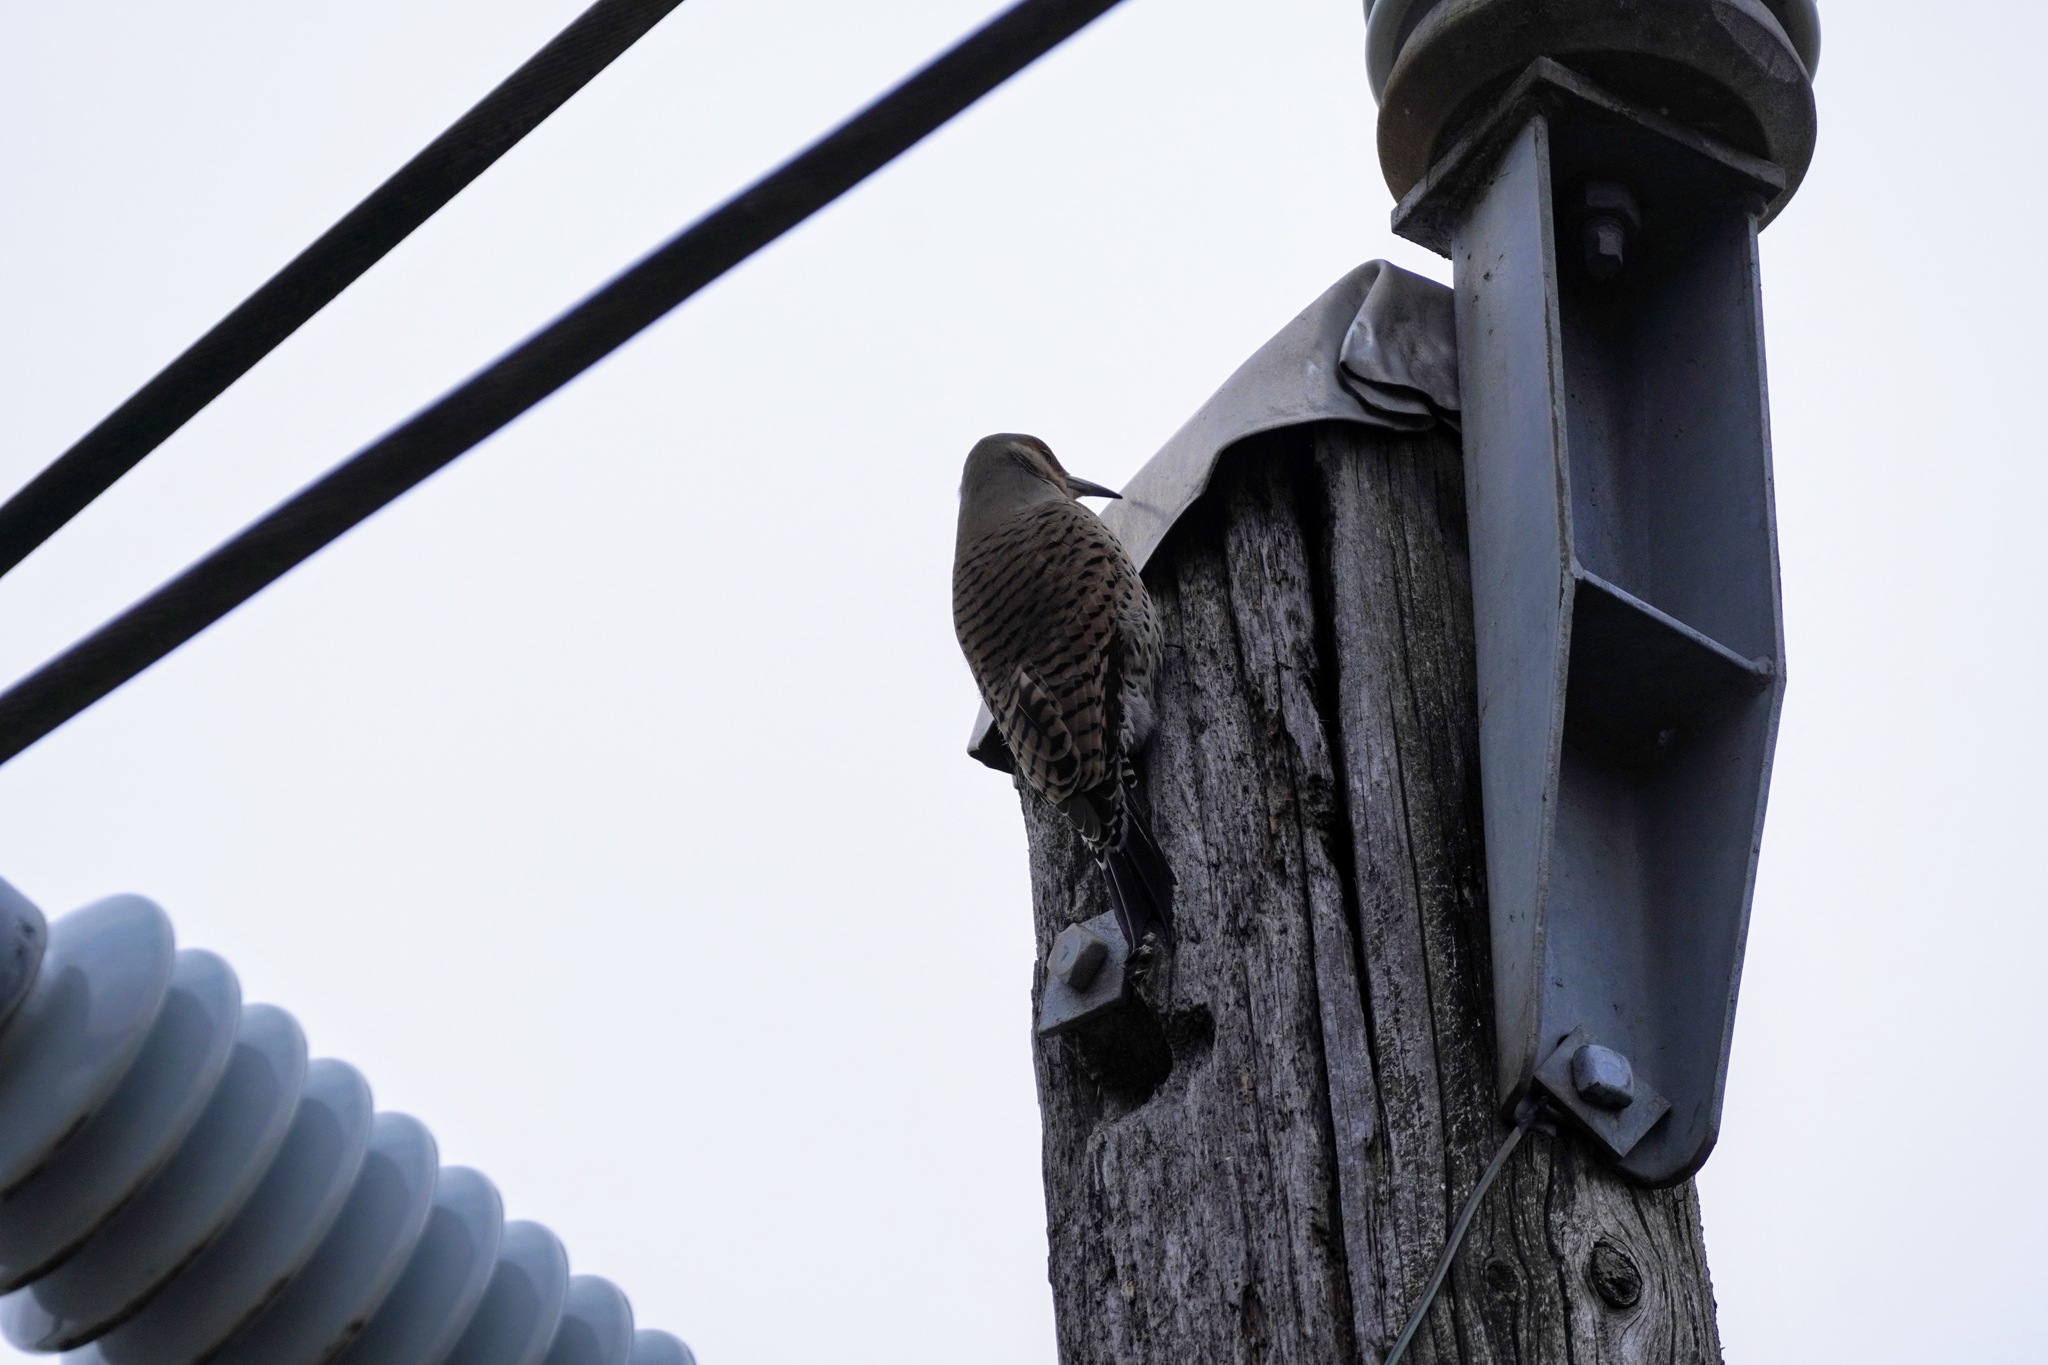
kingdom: Animalia
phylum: Chordata
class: Aves
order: Piciformes
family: Picidae
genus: Colaptes
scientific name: Colaptes auratus
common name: Northern flicker
